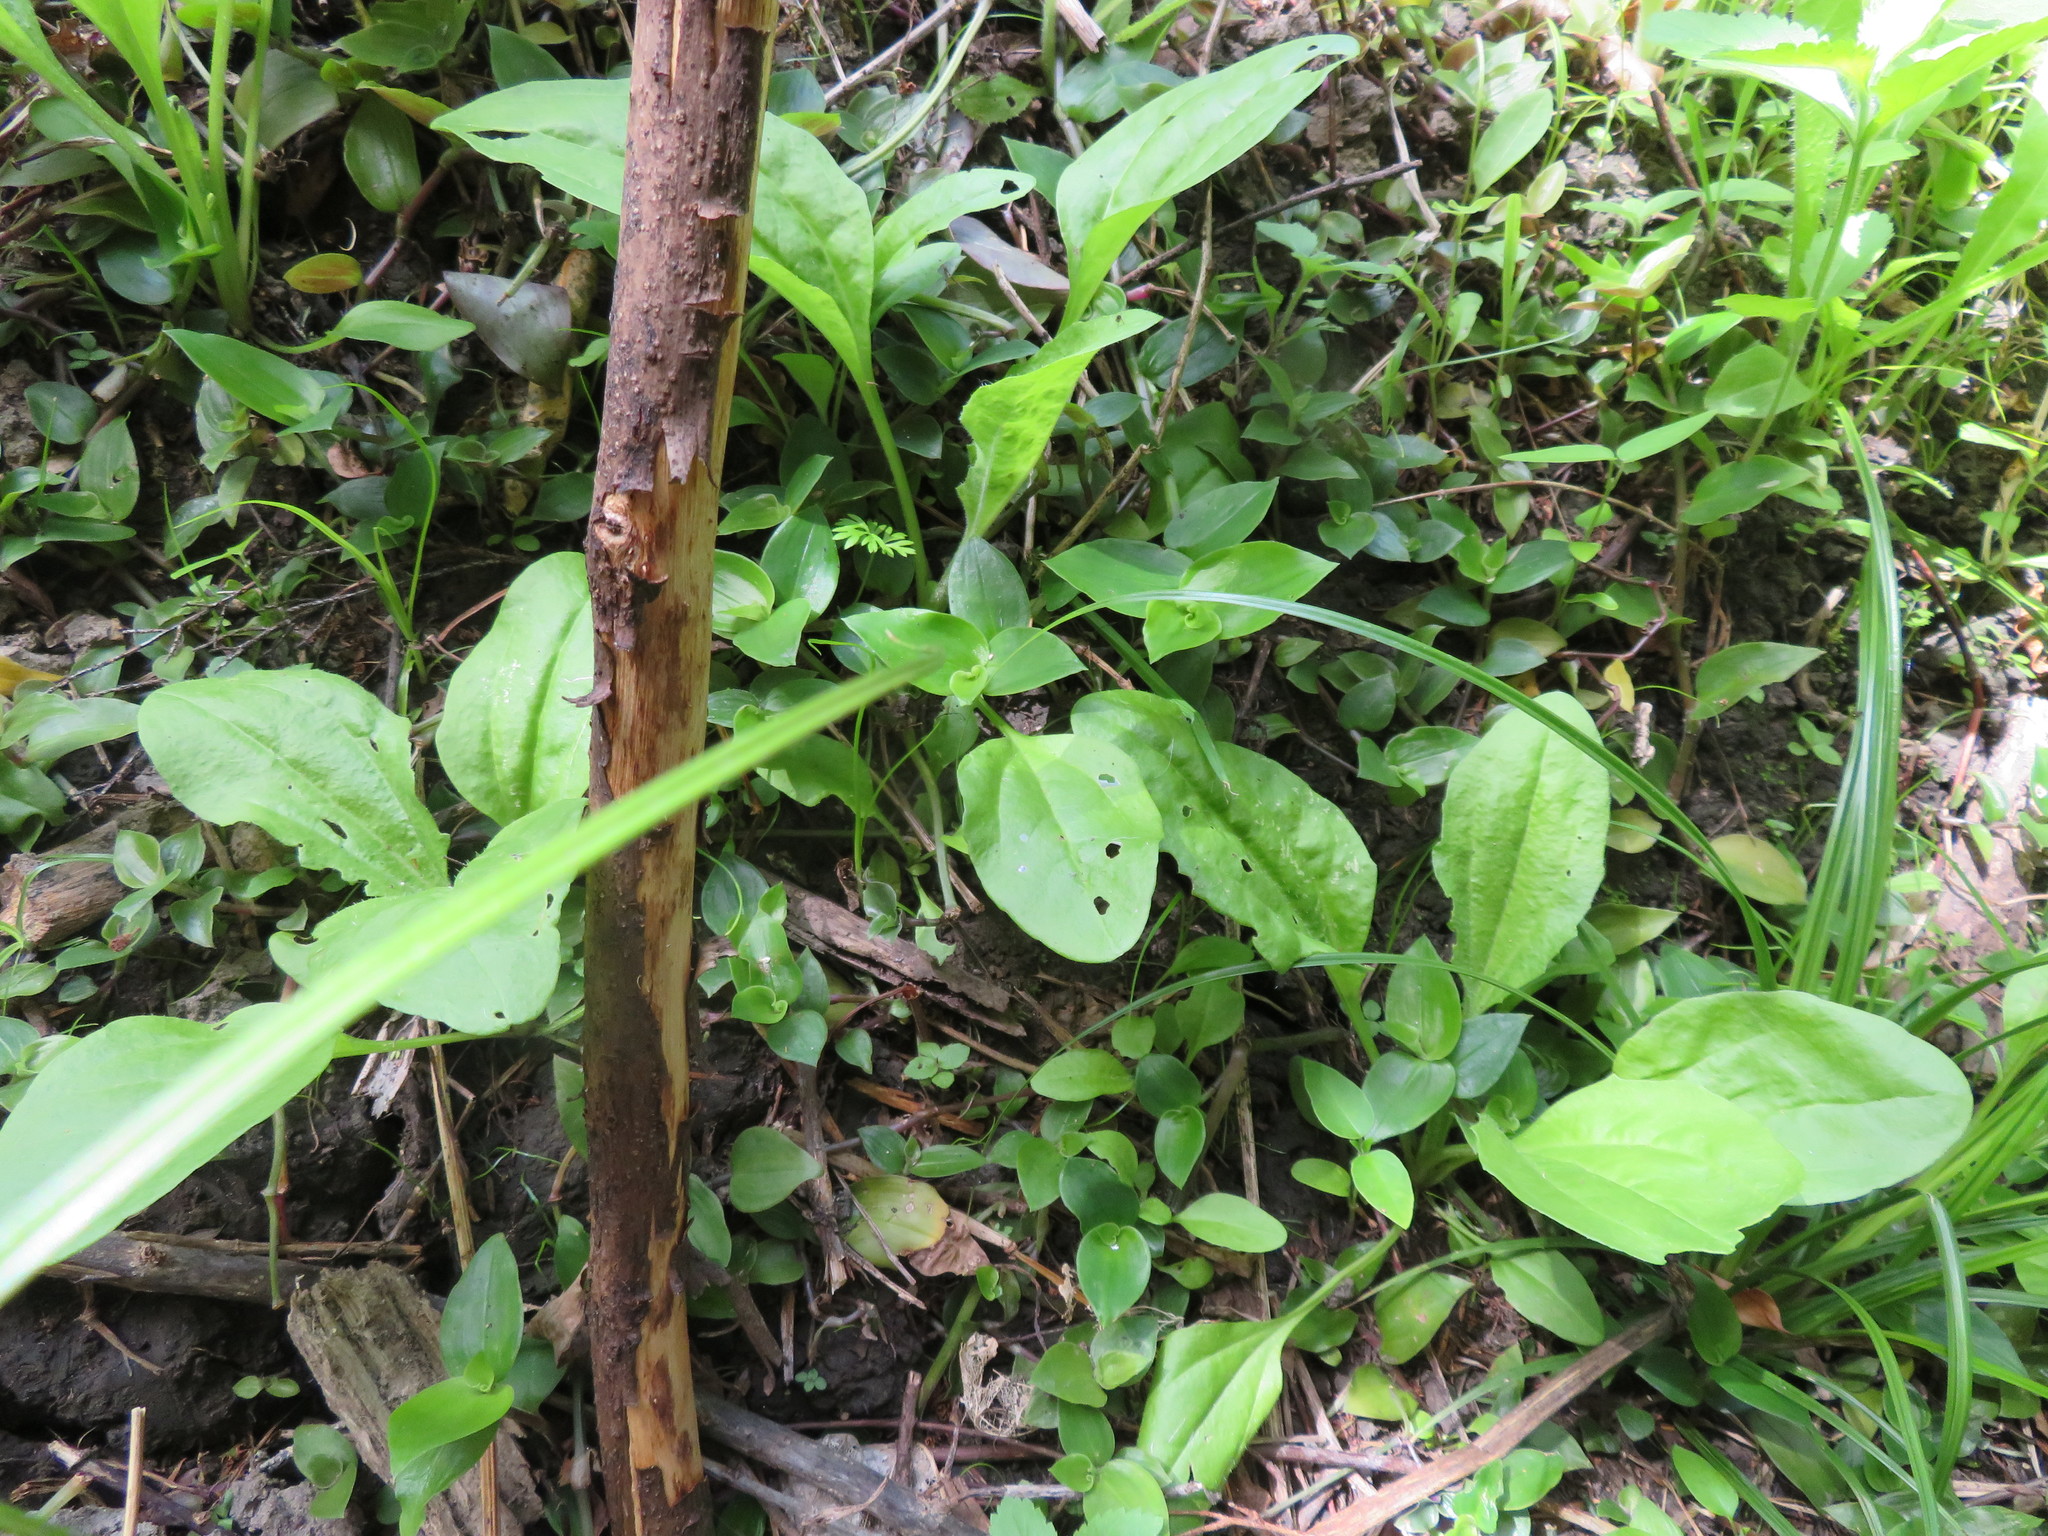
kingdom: Plantae
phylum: Tracheophyta
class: Magnoliopsida
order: Lamiales
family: Plantaginaceae
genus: Plantago
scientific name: Plantago major
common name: Common plantain
